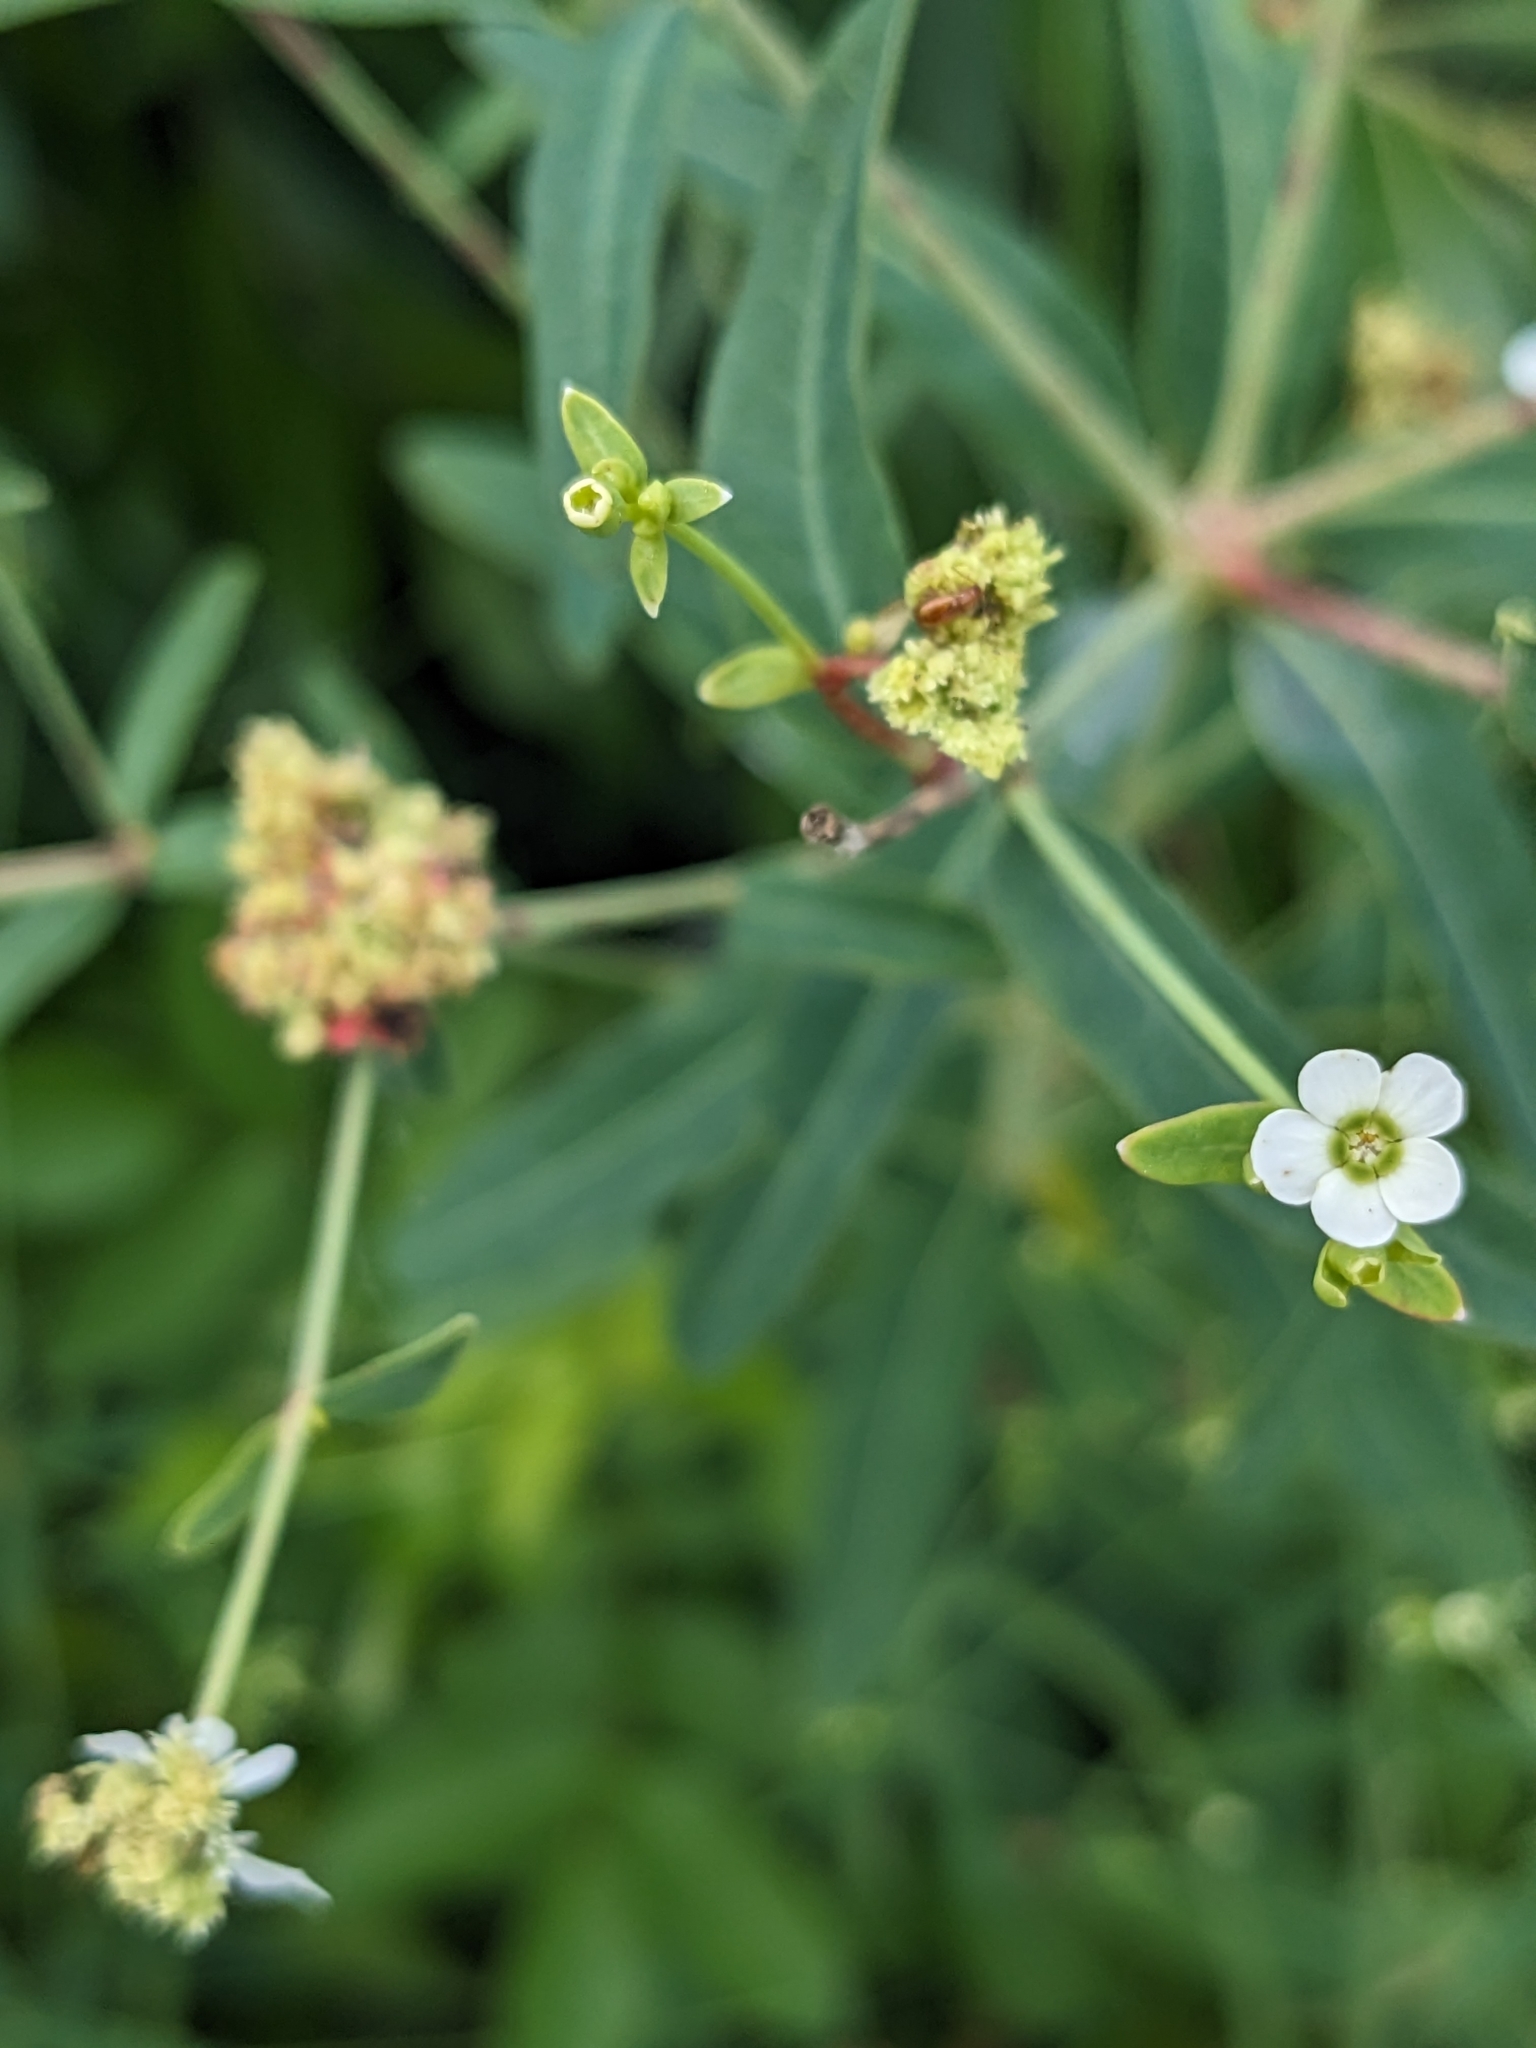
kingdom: Plantae
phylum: Tracheophyta
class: Magnoliopsida
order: Malpighiales
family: Euphorbiaceae
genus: Euphorbia
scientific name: Euphorbia corollata
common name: Flowering spurge
